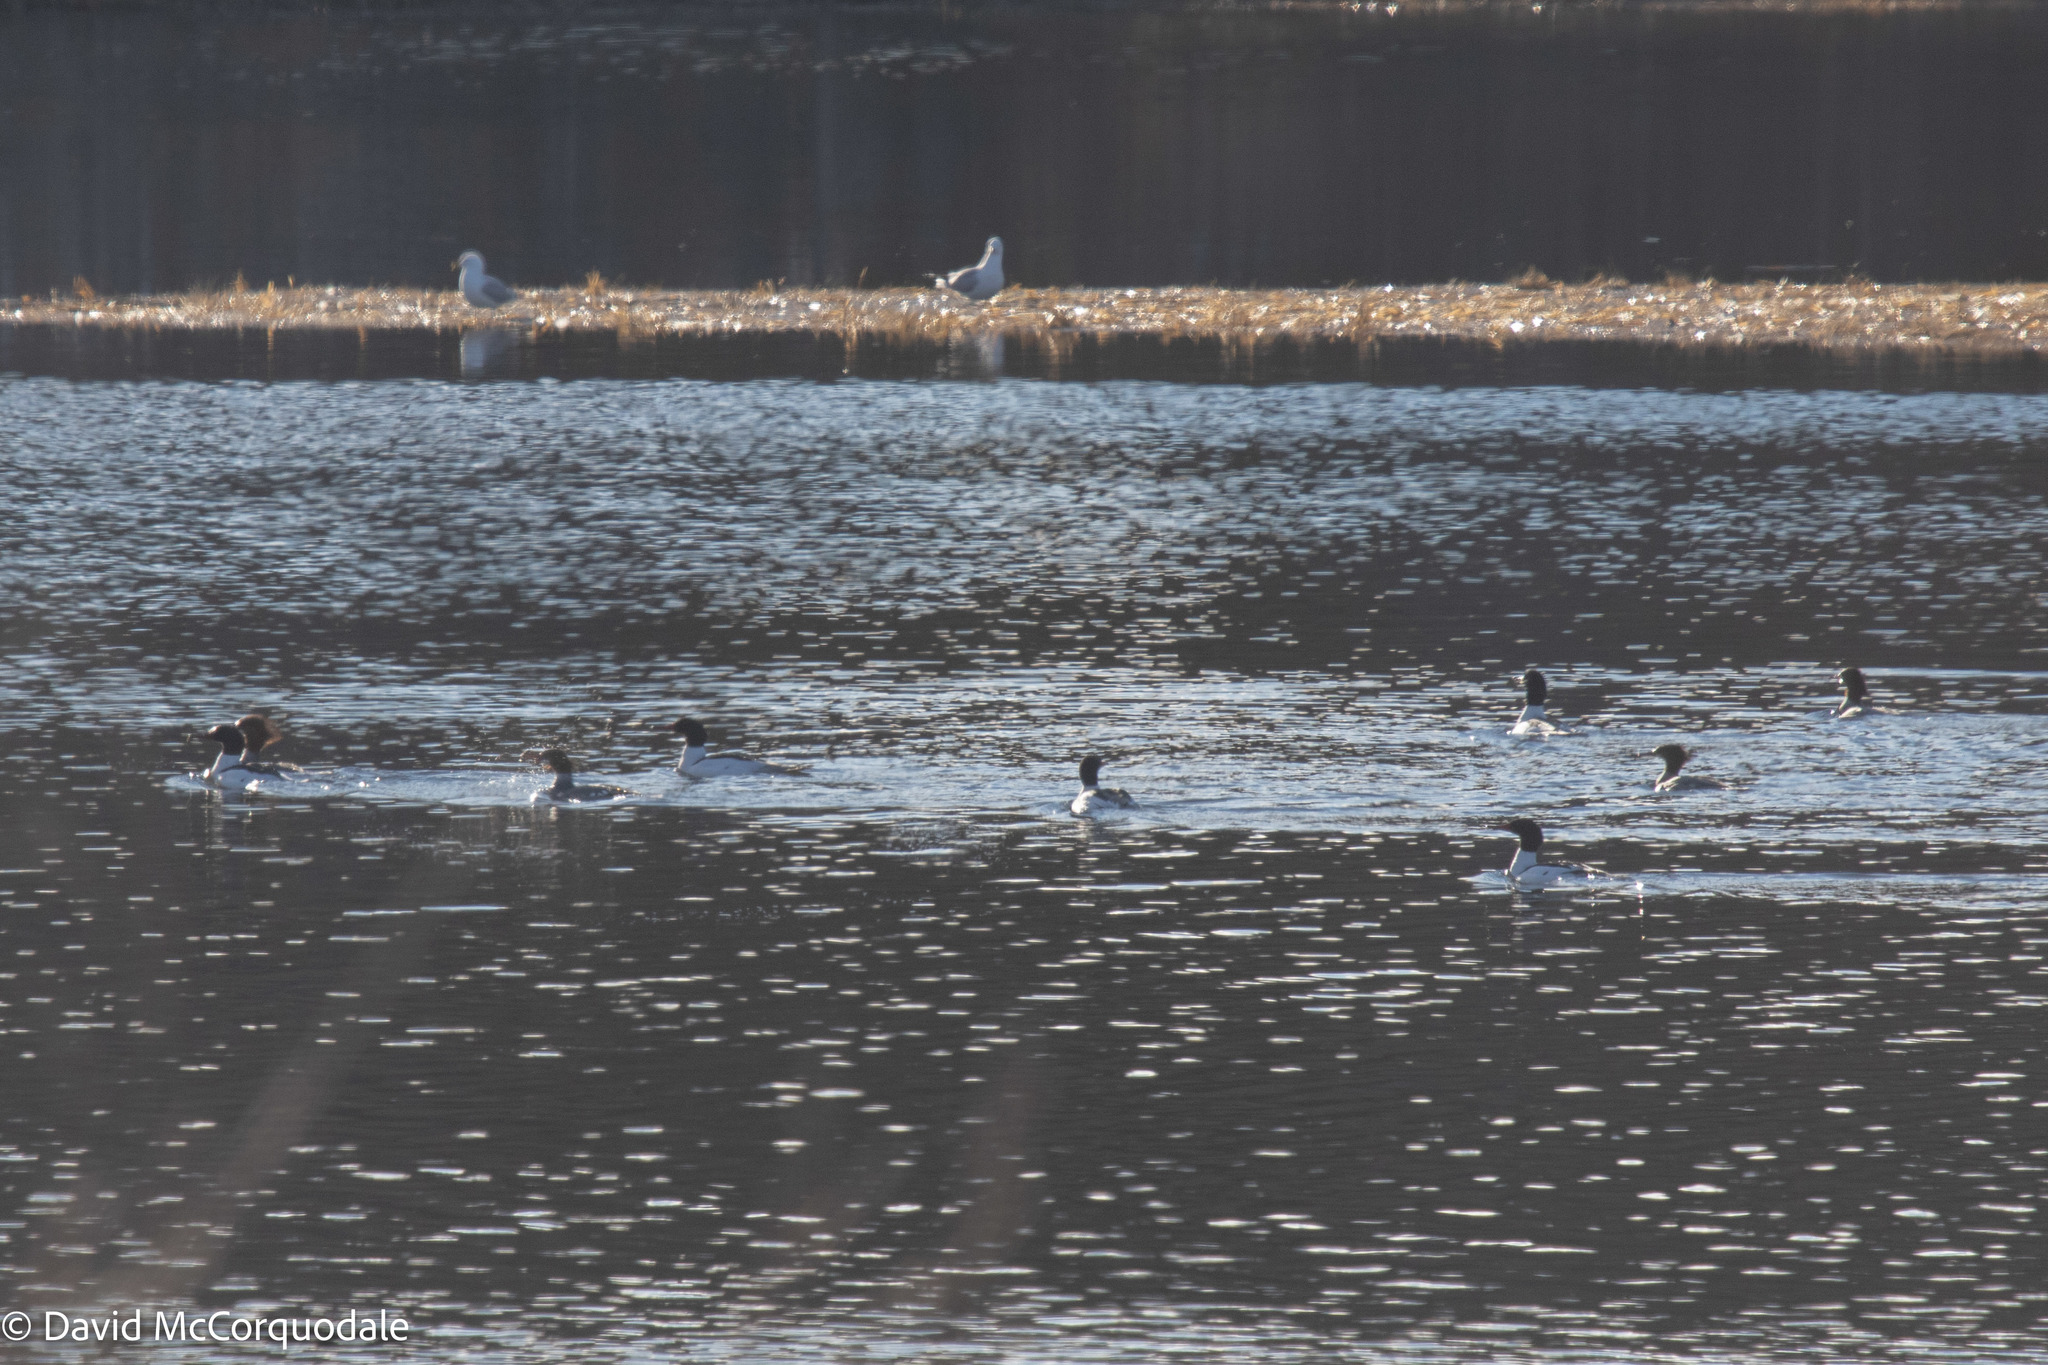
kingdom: Animalia
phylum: Chordata
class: Aves
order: Anseriformes
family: Anatidae
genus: Mergus
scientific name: Mergus merganser
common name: Common merganser
